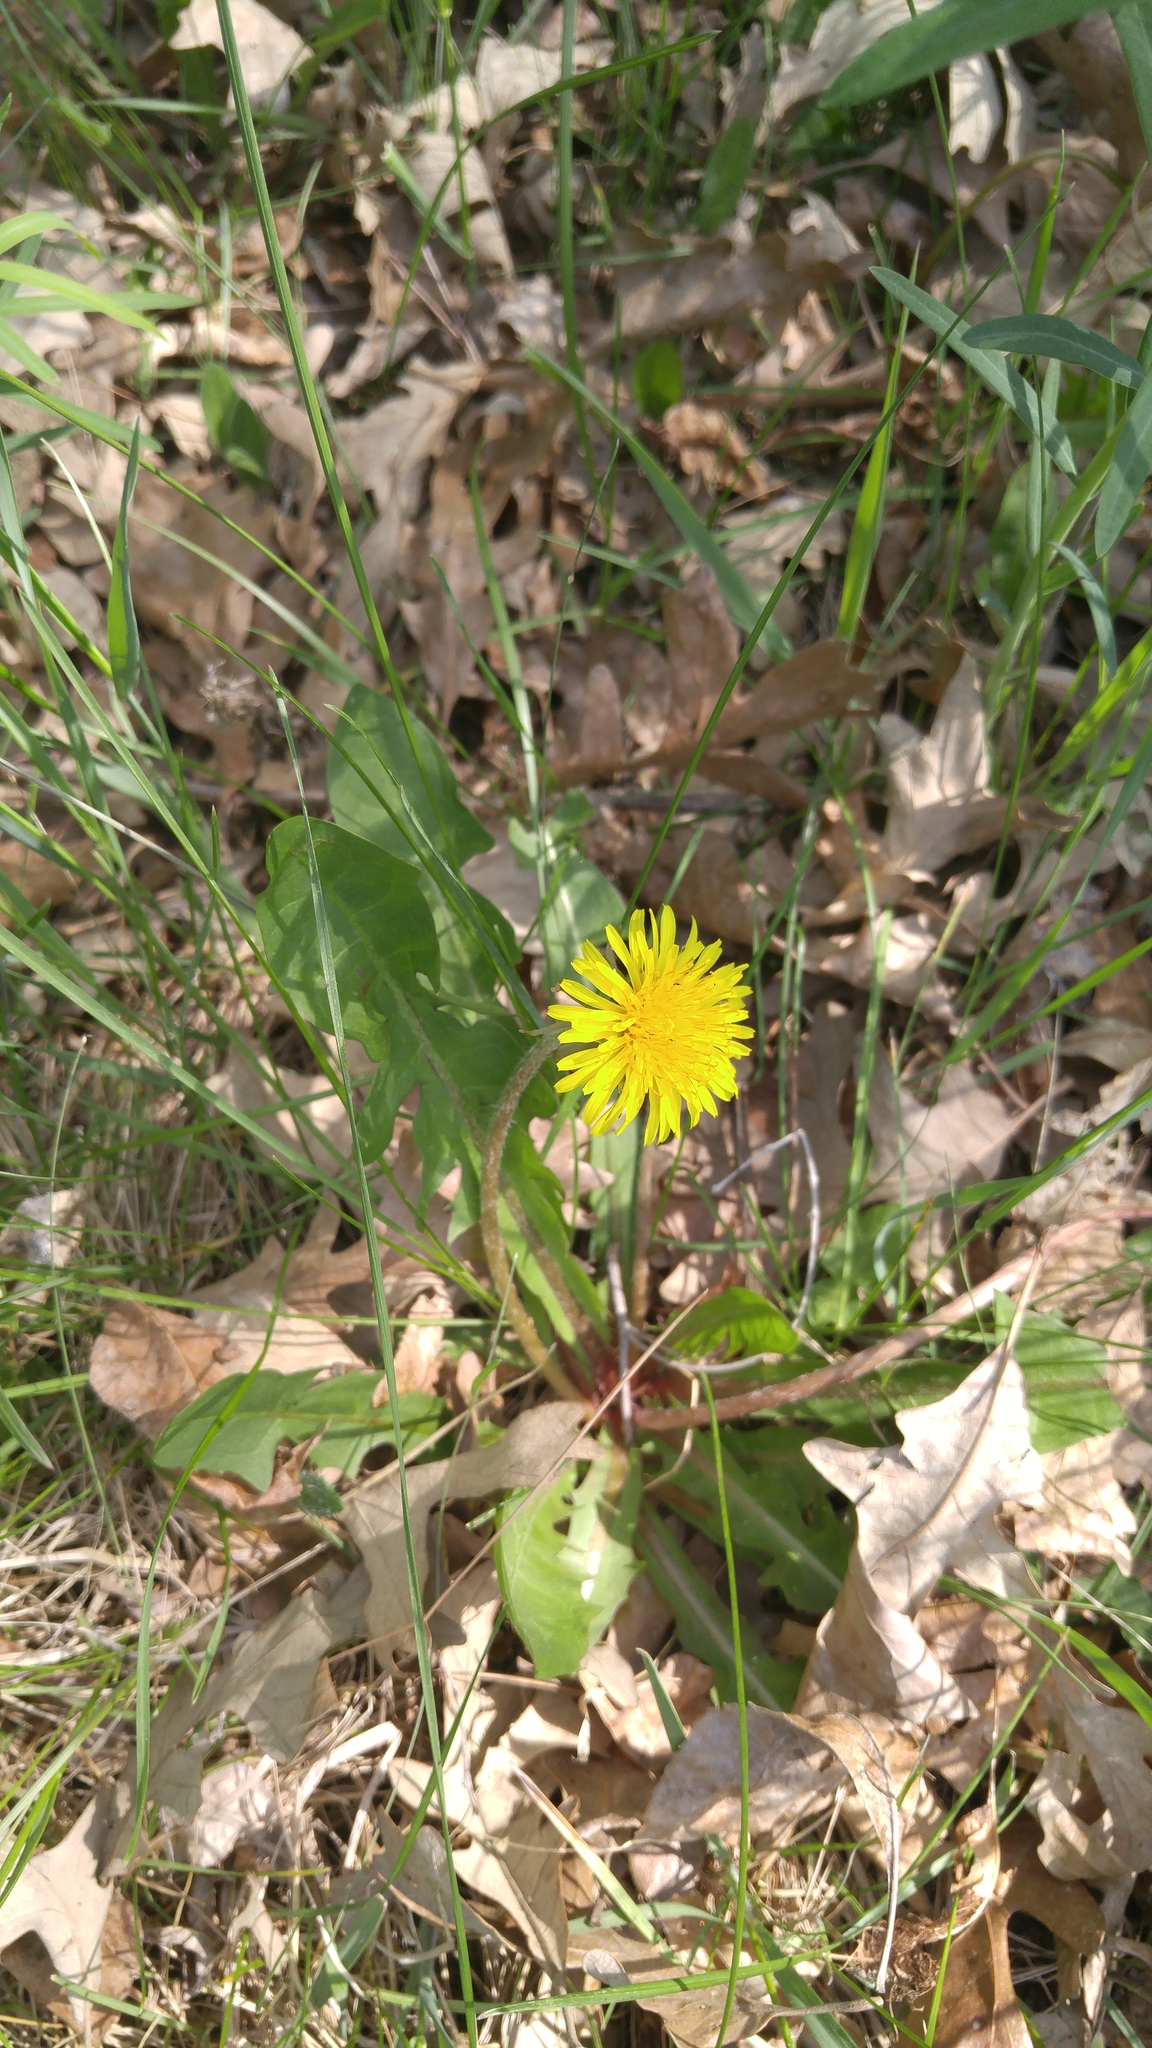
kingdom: Plantae
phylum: Tracheophyta
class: Magnoliopsida
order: Asterales
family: Asteraceae
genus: Taraxacum
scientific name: Taraxacum officinale
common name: Common dandelion
